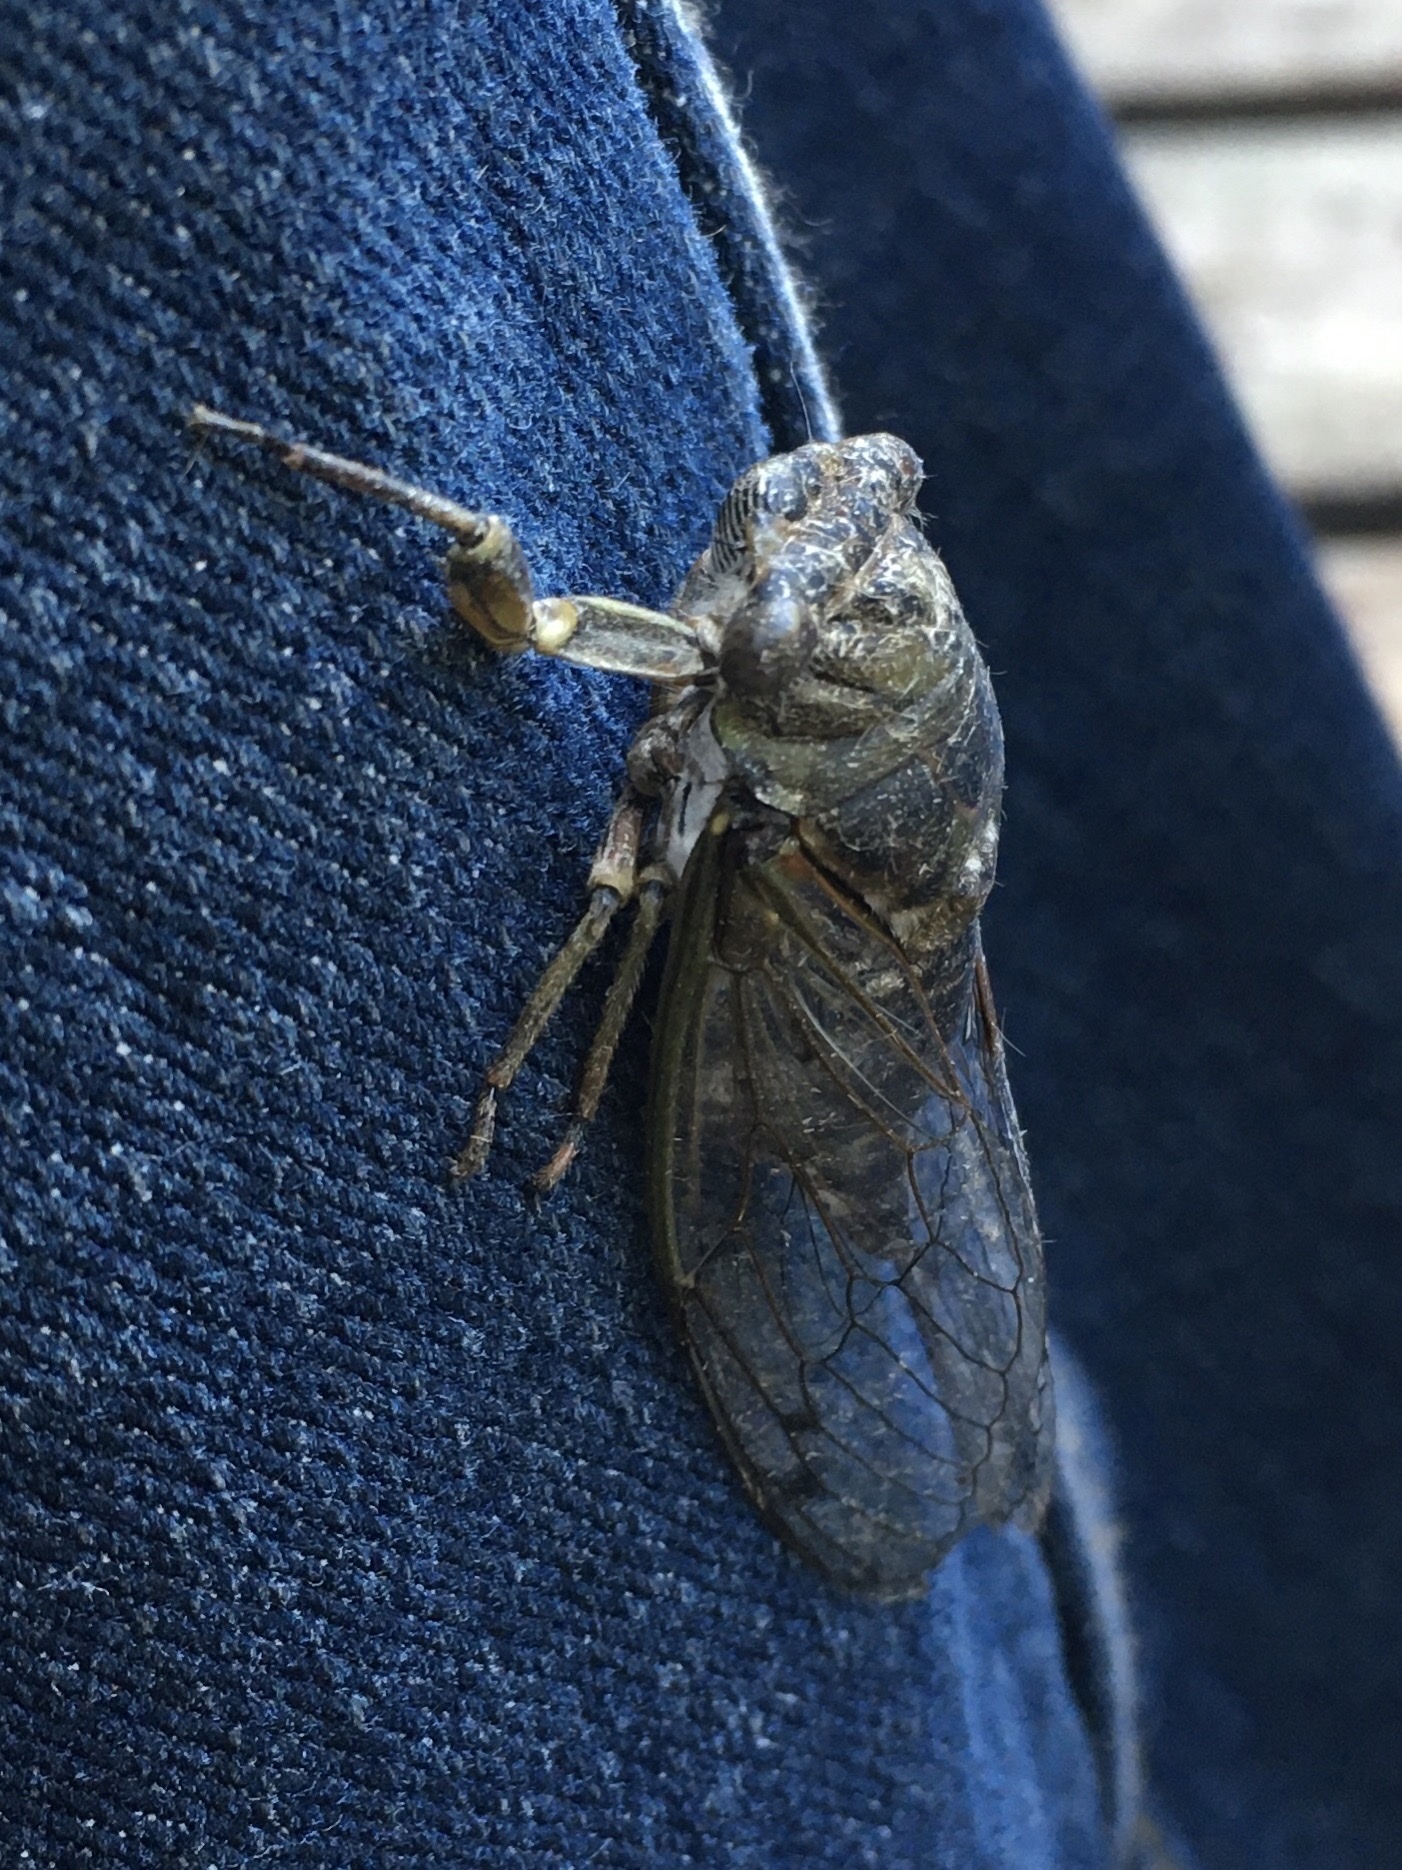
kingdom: Animalia
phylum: Arthropoda
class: Insecta
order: Hemiptera
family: Cicadidae
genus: Neotibicen
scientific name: Neotibicen canicularis
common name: God-day cicada
